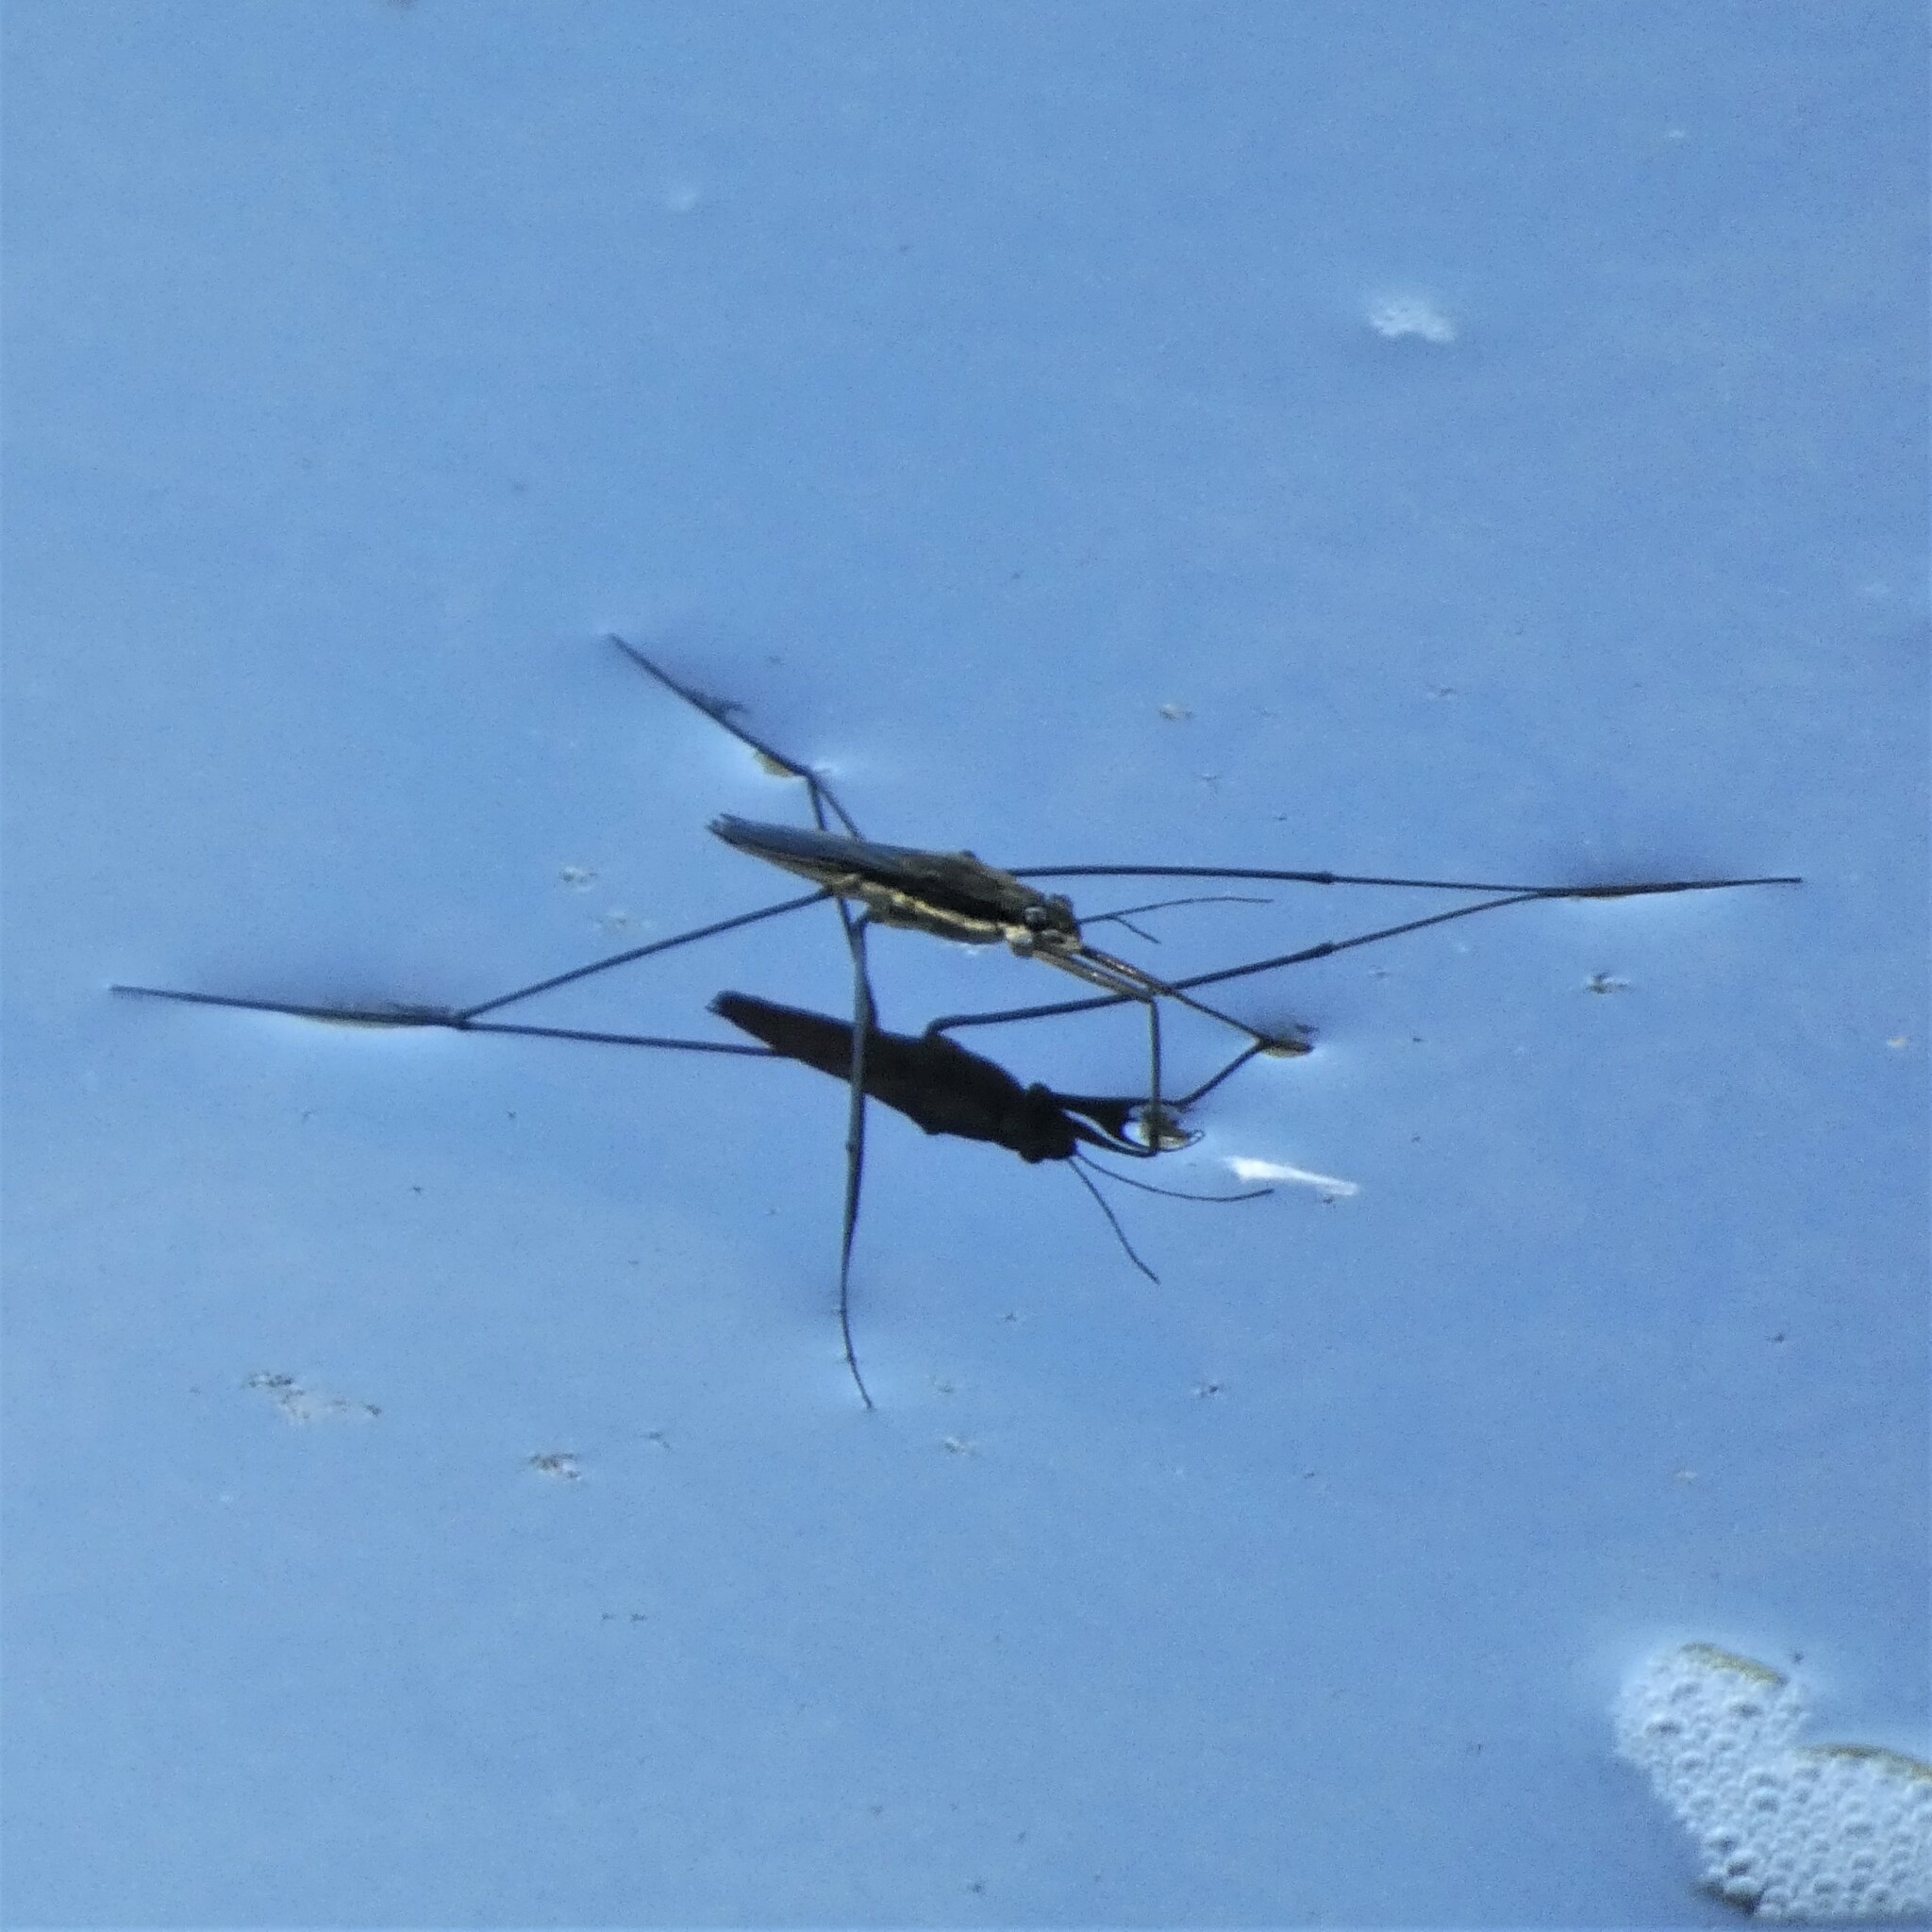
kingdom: Animalia
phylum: Arthropoda
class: Insecta
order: Hemiptera
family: Gerridae
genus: Aquarius
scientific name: Aquarius conformis
